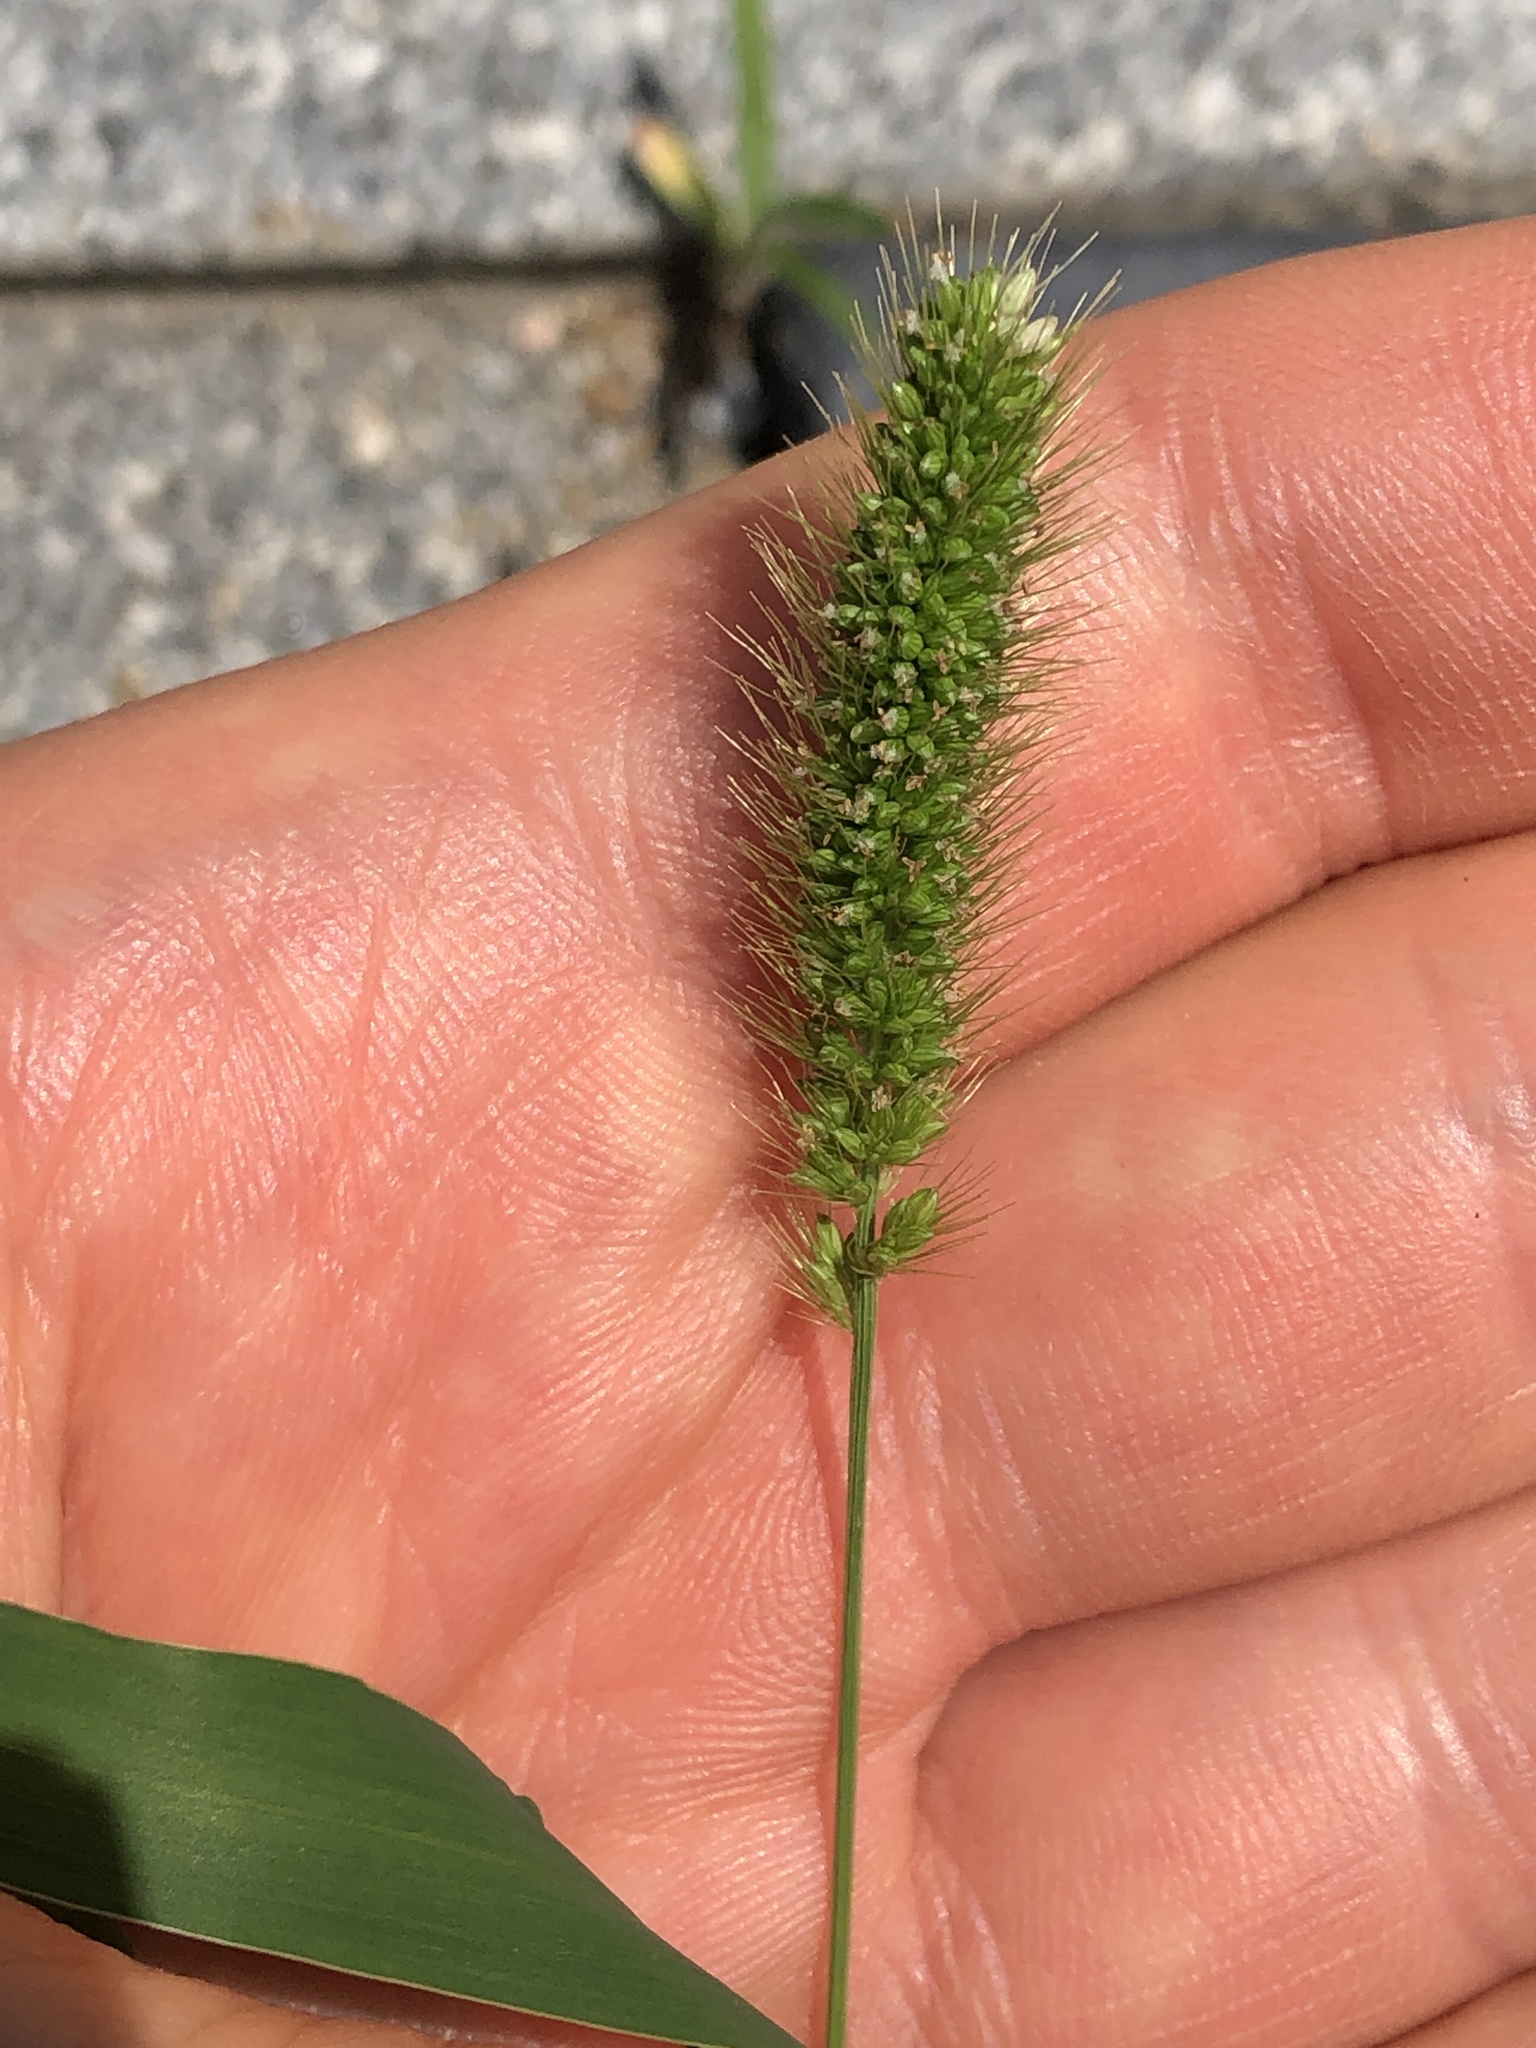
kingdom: Plantae
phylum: Tracheophyta
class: Liliopsida
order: Poales
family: Poaceae
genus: Setaria
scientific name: Setaria viridis
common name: Green bristlegrass
